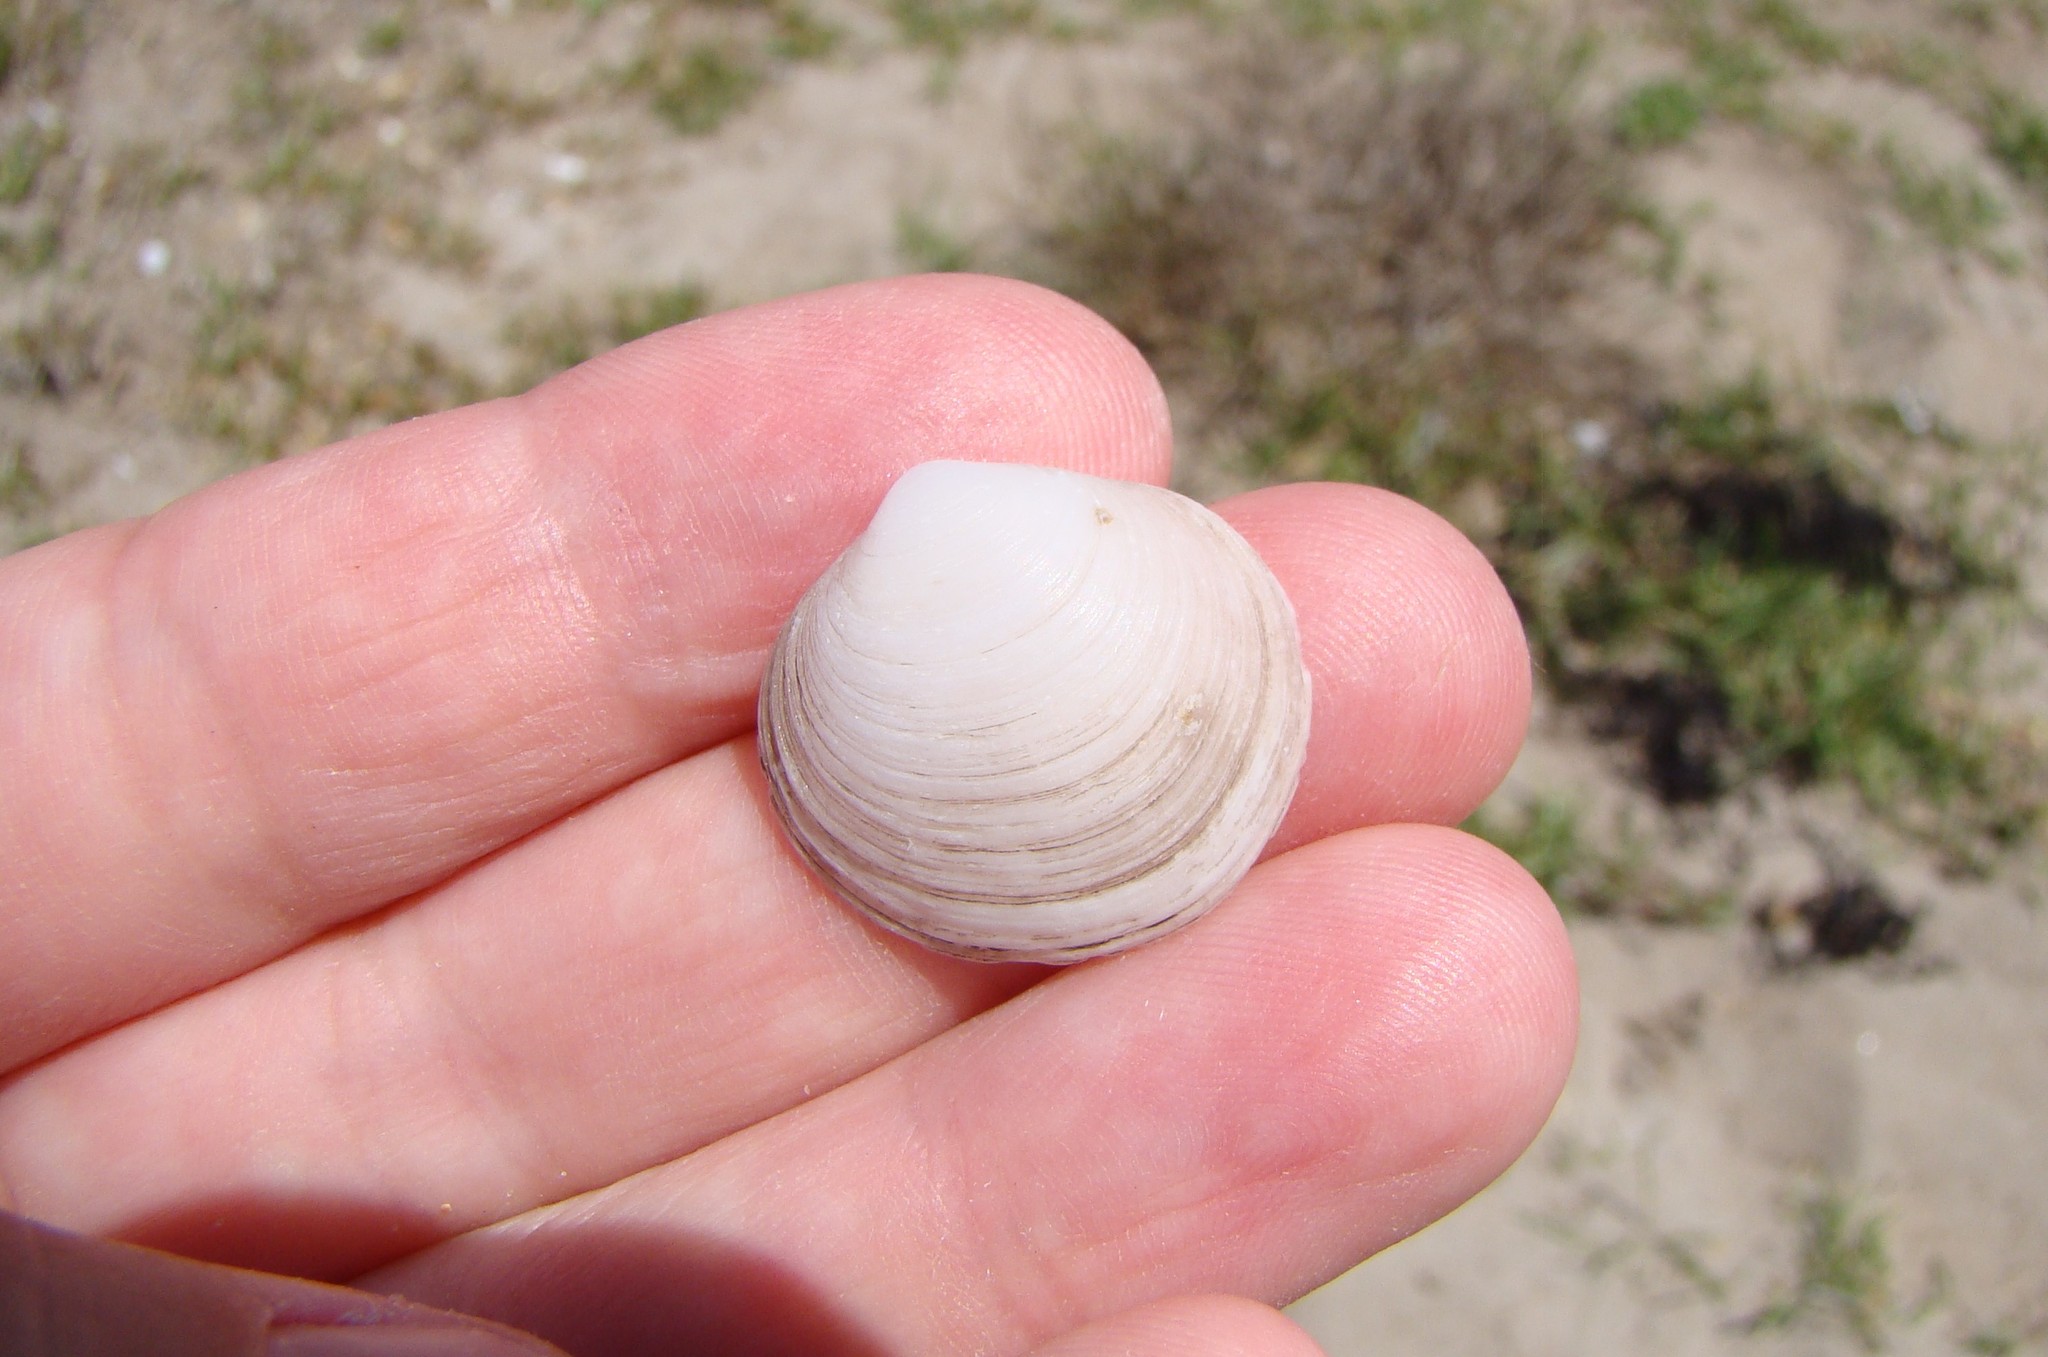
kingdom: Animalia
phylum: Mollusca
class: Bivalvia
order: Venerida
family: Ungulinidae
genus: Zemysia
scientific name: Zemysia zelandica
